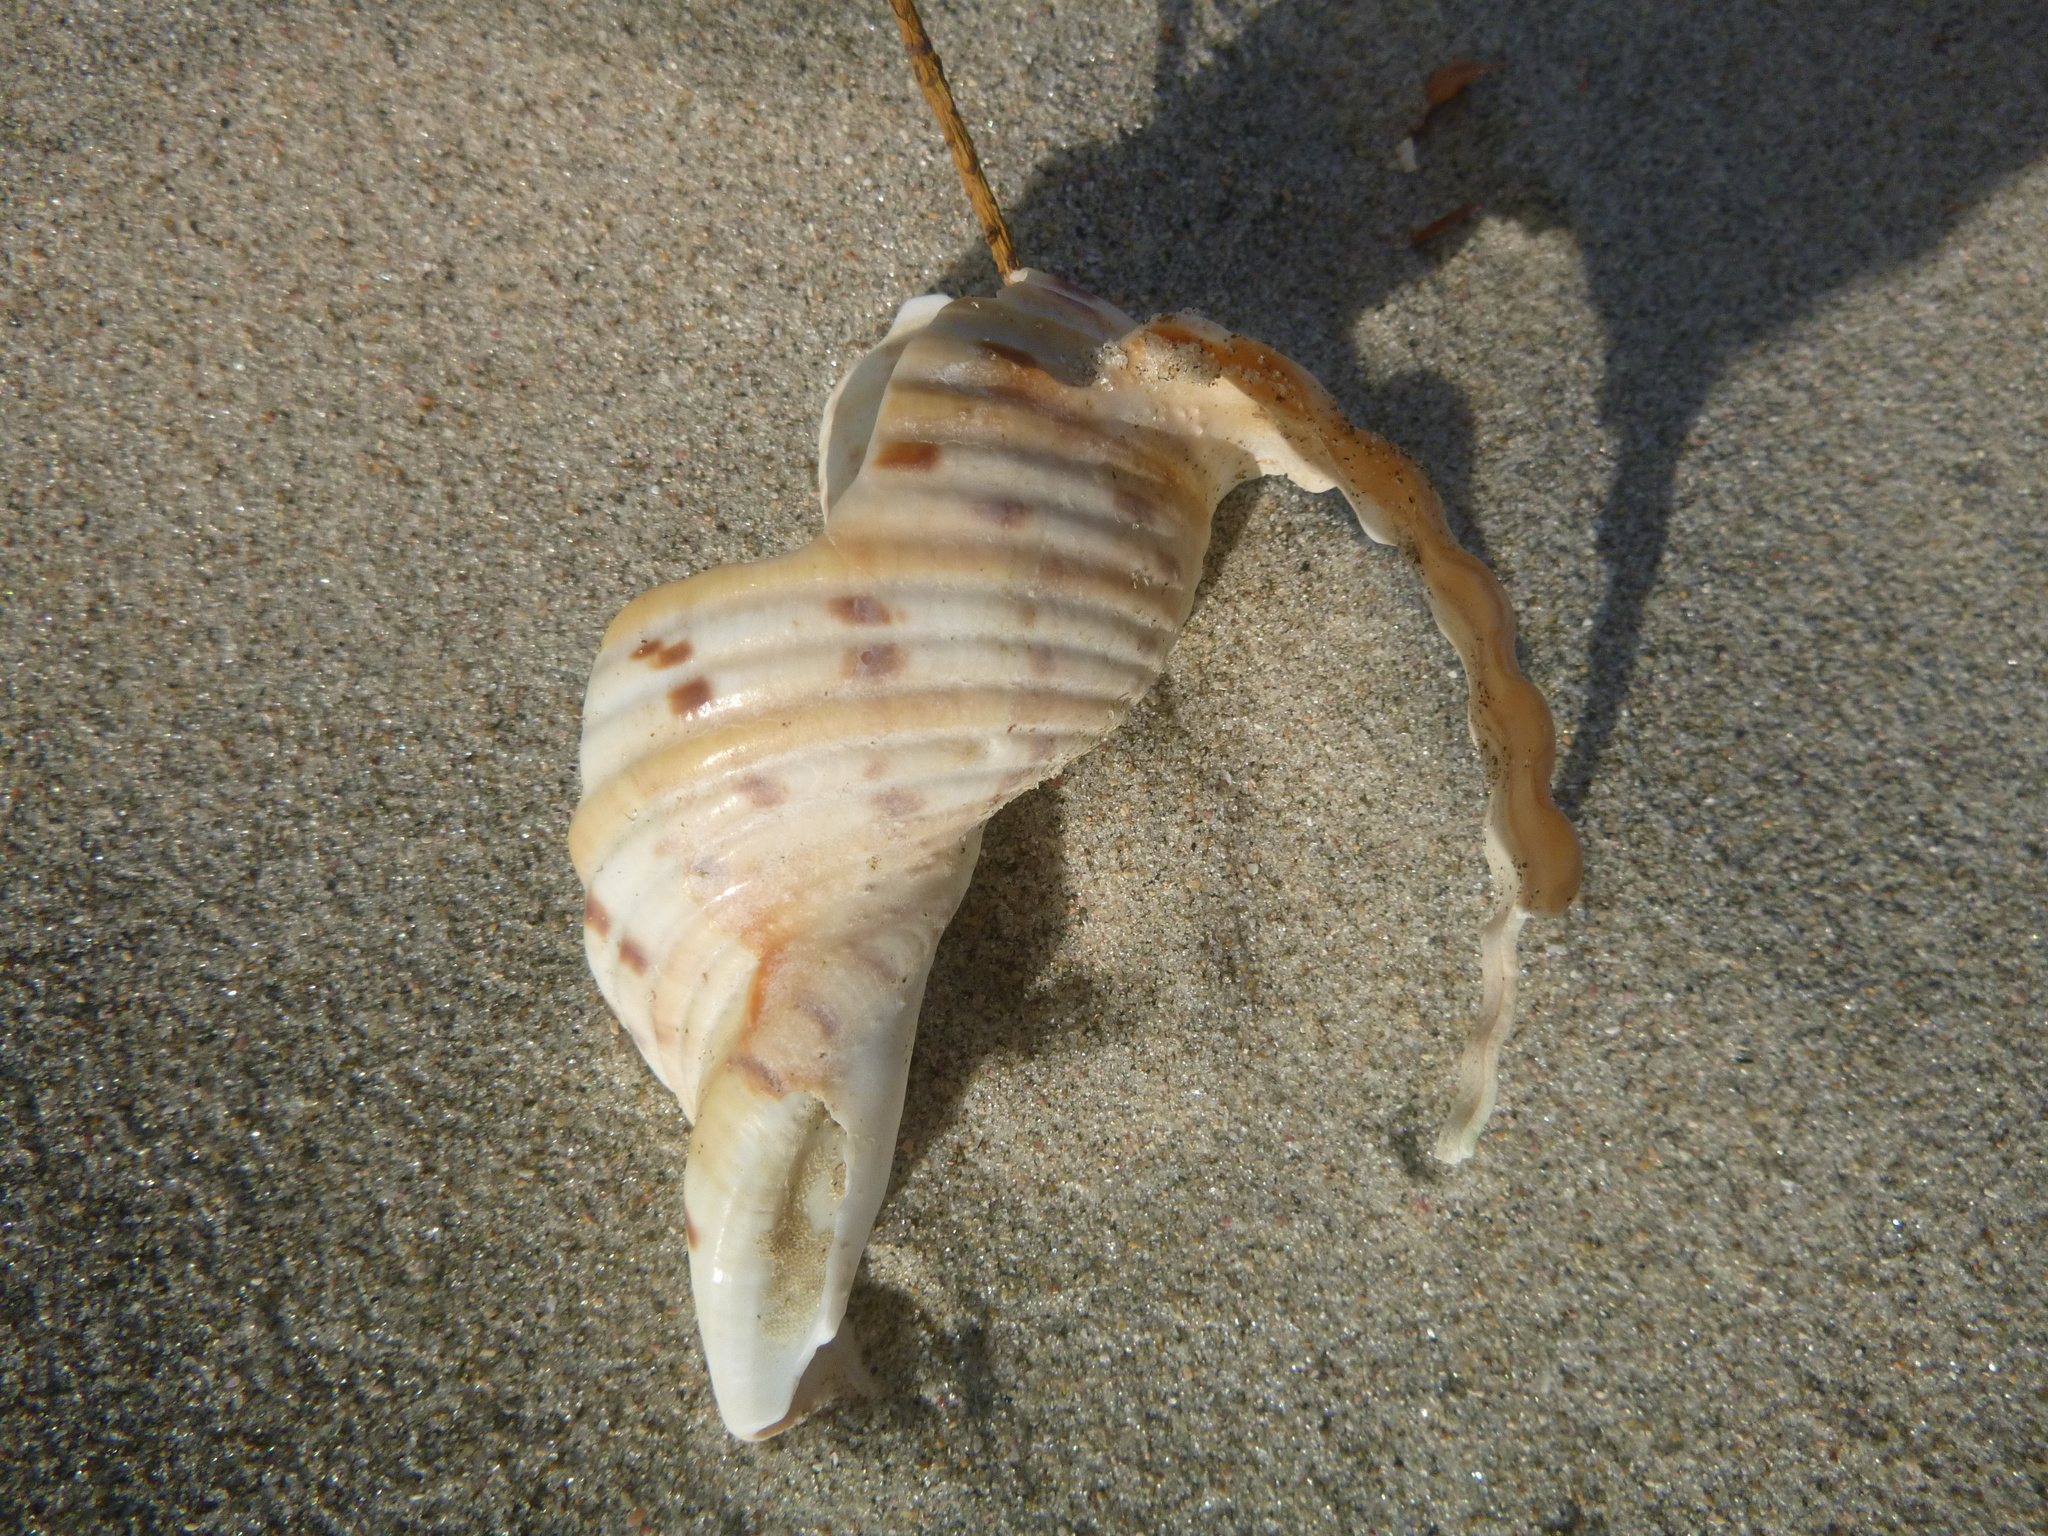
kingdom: Animalia
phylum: Mollusca
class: Gastropoda
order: Littorinimorpha
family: Tonnidae
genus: Tonna
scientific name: Tonna tankervillii
